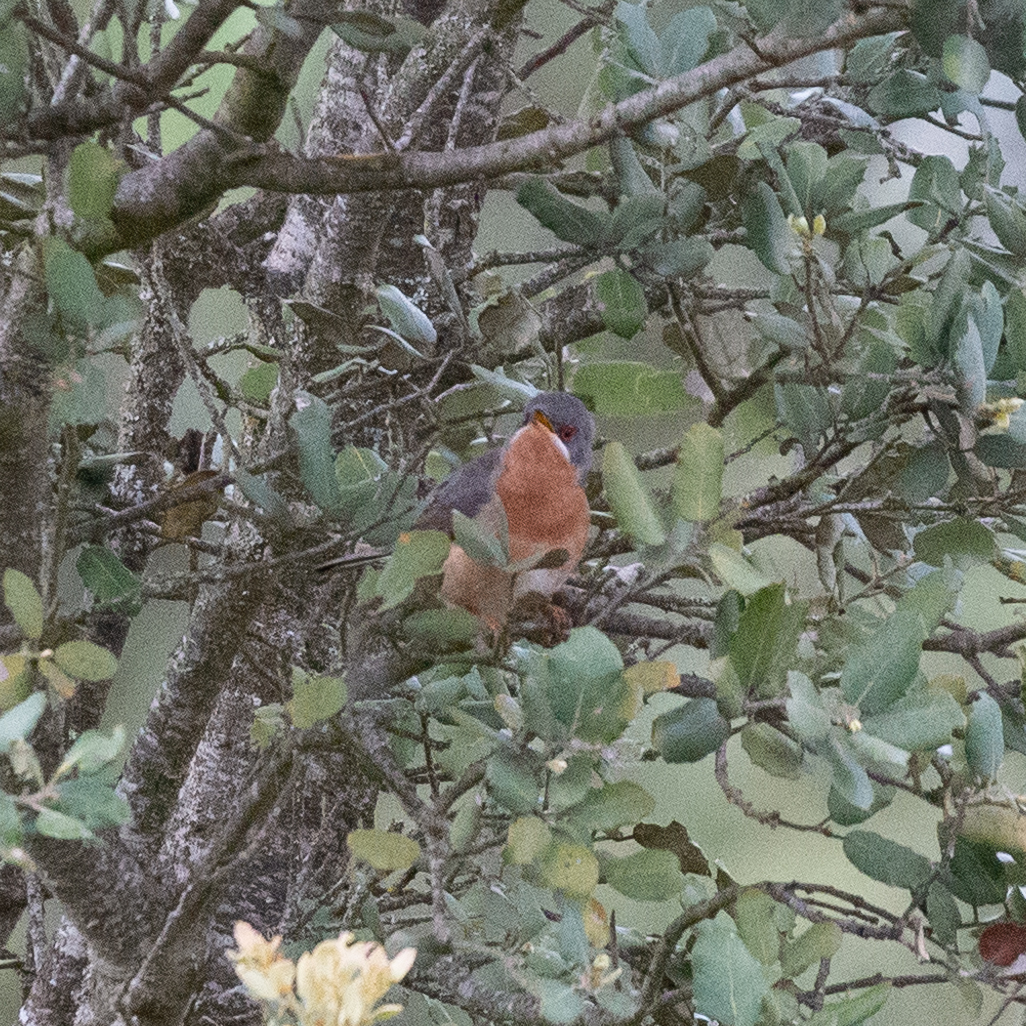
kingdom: Animalia
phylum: Chordata
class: Aves
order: Passeriformes
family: Sylviidae
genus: Curruca
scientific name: Curruca iberiae
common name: Western subalpine warbler
